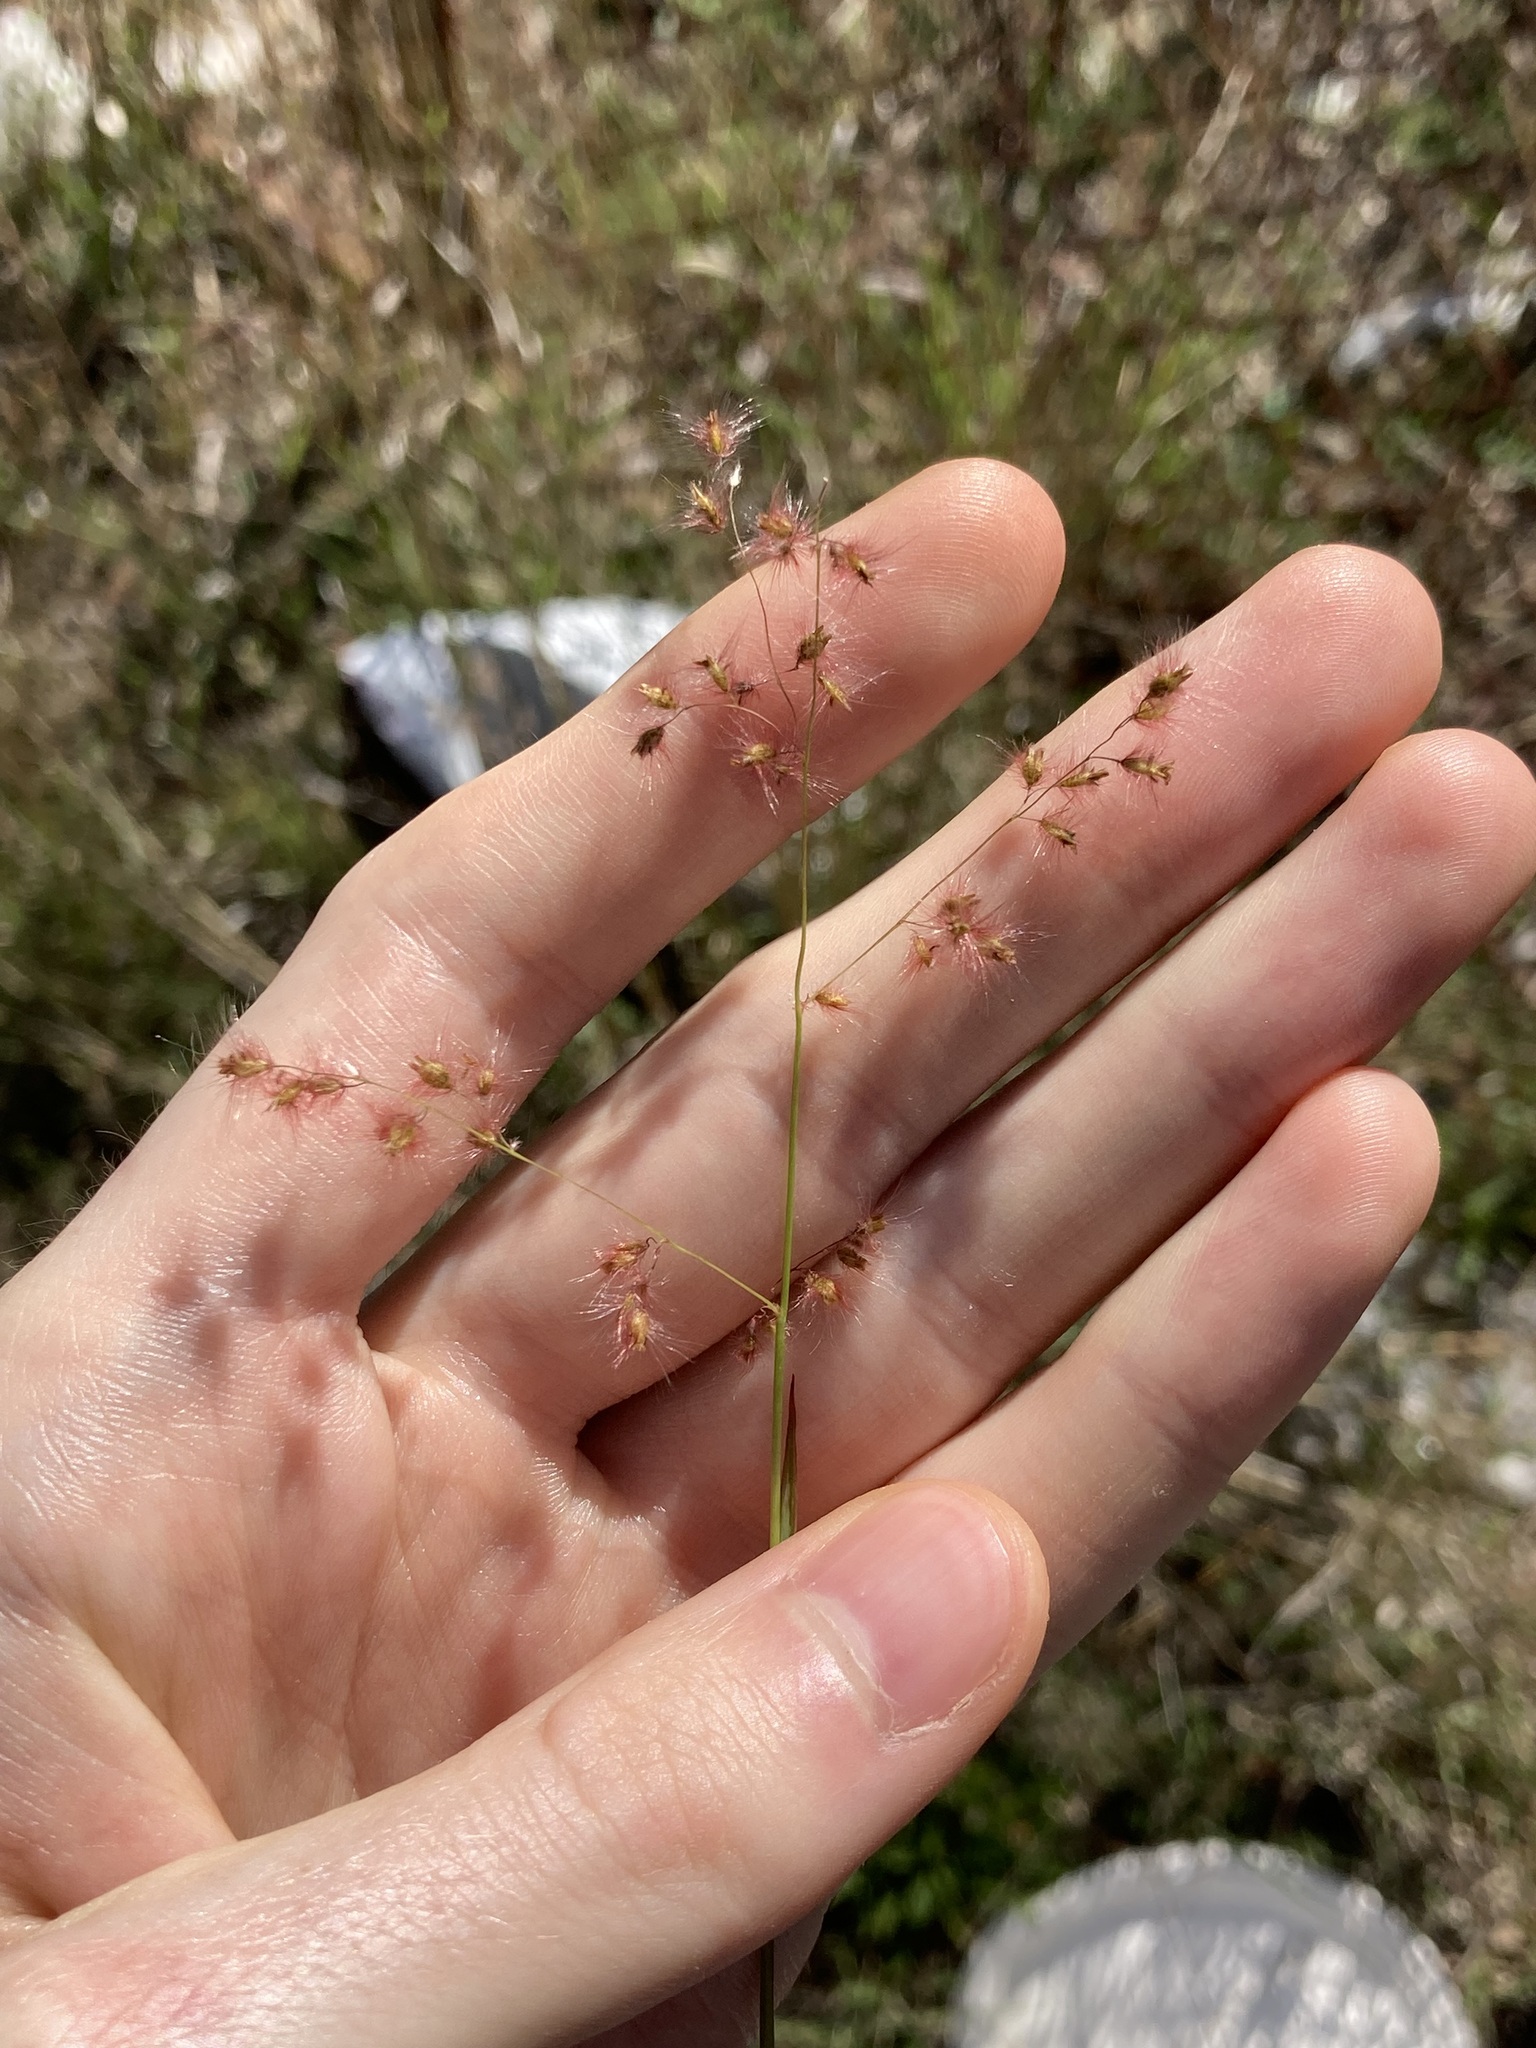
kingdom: Plantae
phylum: Tracheophyta
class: Liliopsida
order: Poales
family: Poaceae
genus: Melinis
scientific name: Melinis repens
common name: Rose natal grass
